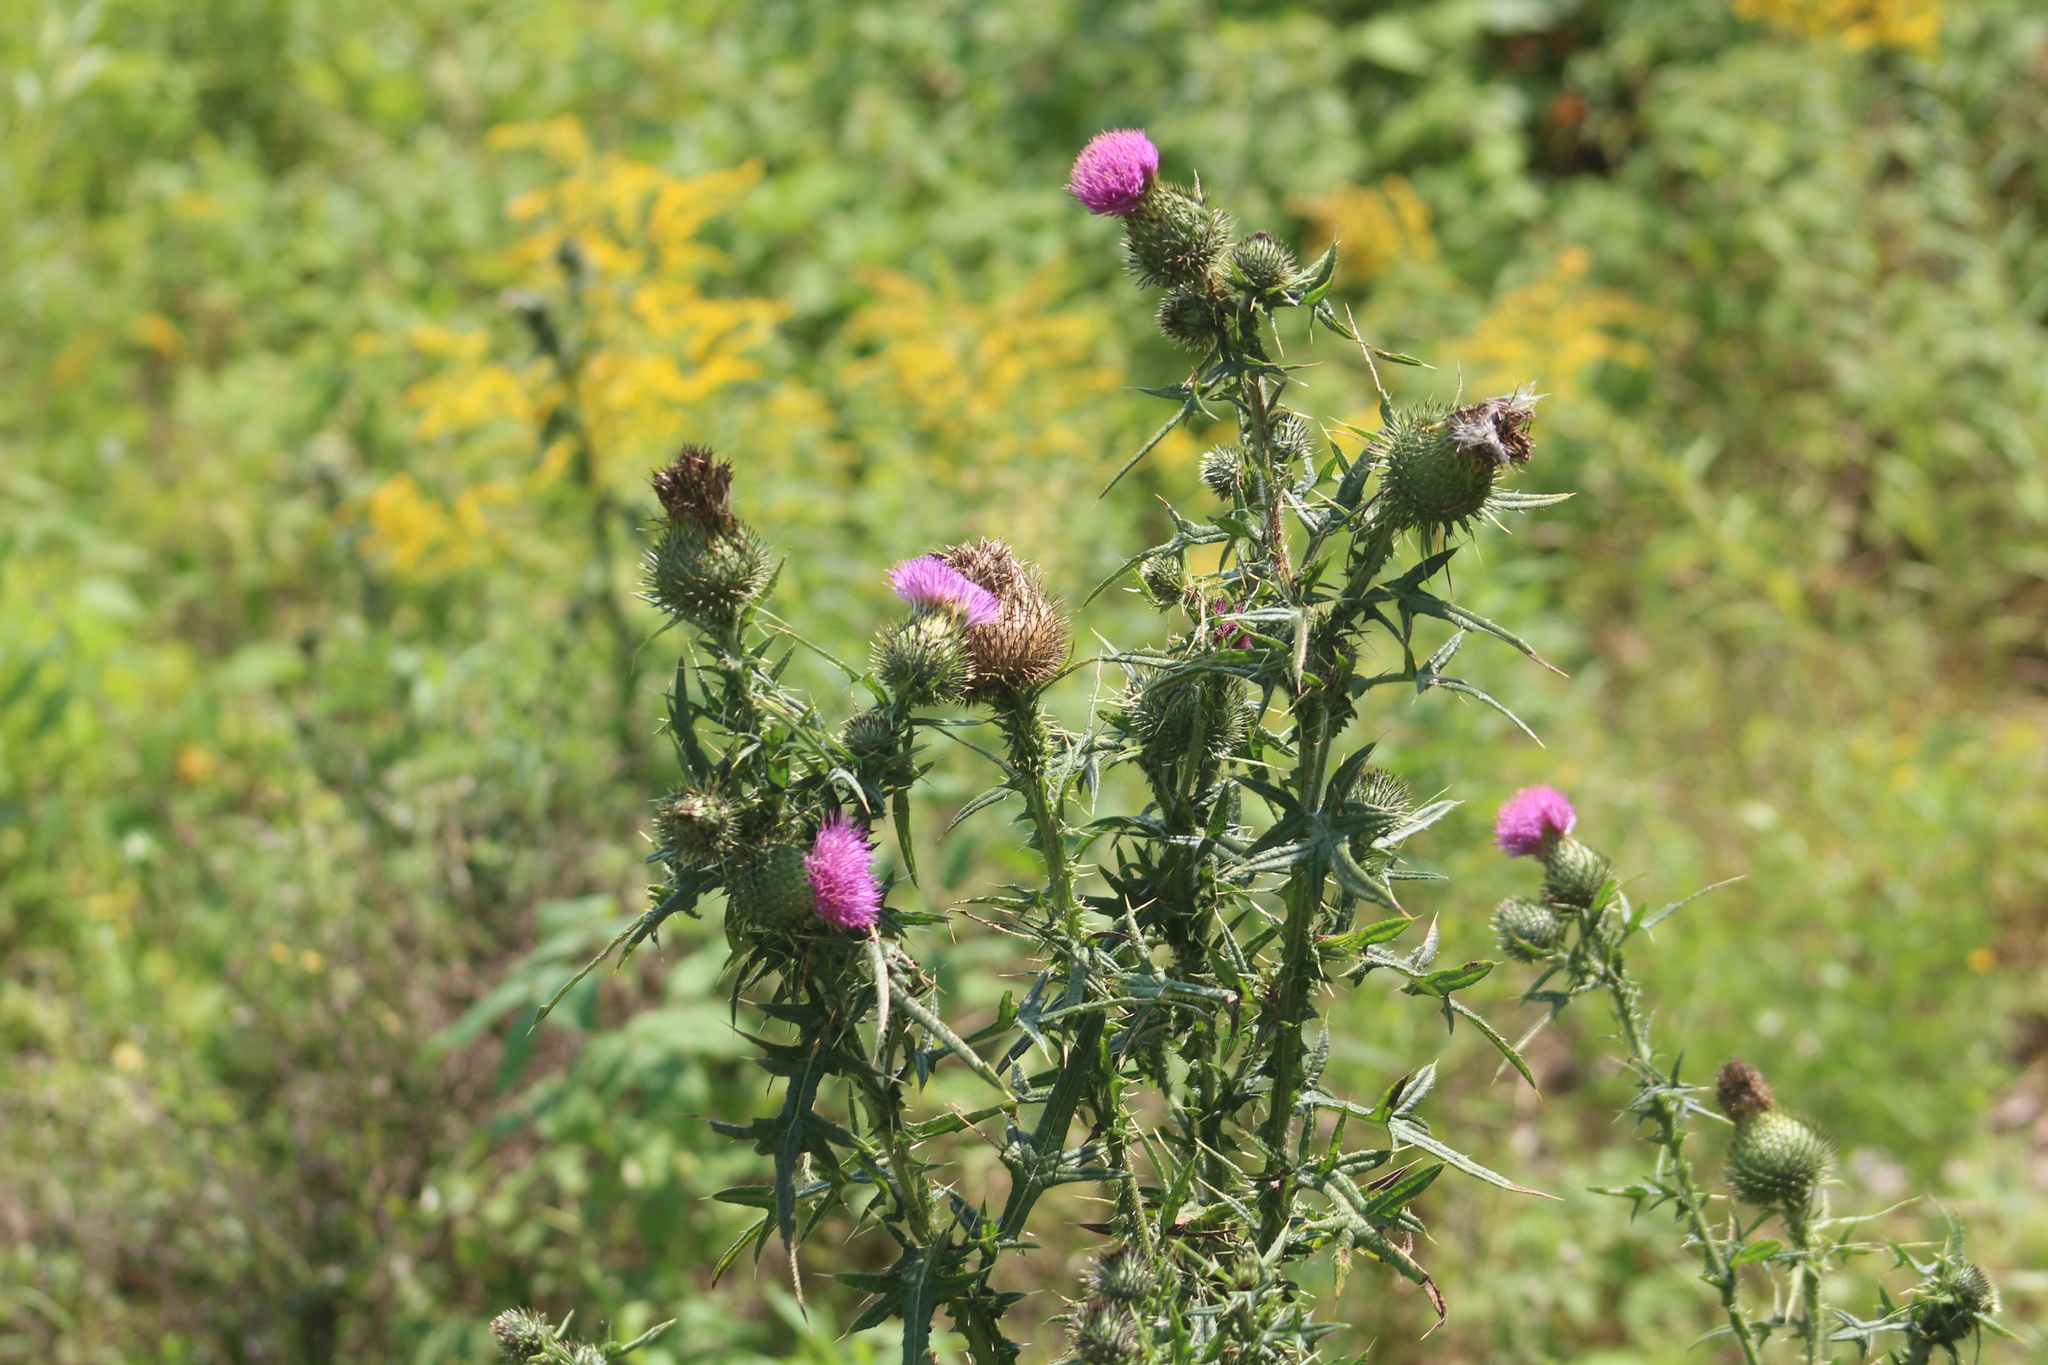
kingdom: Plantae
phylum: Tracheophyta
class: Magnoliopsida
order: Asterales
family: Asteraceae
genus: Cirsium
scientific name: Cirsium vulgare
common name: Bull thistle
